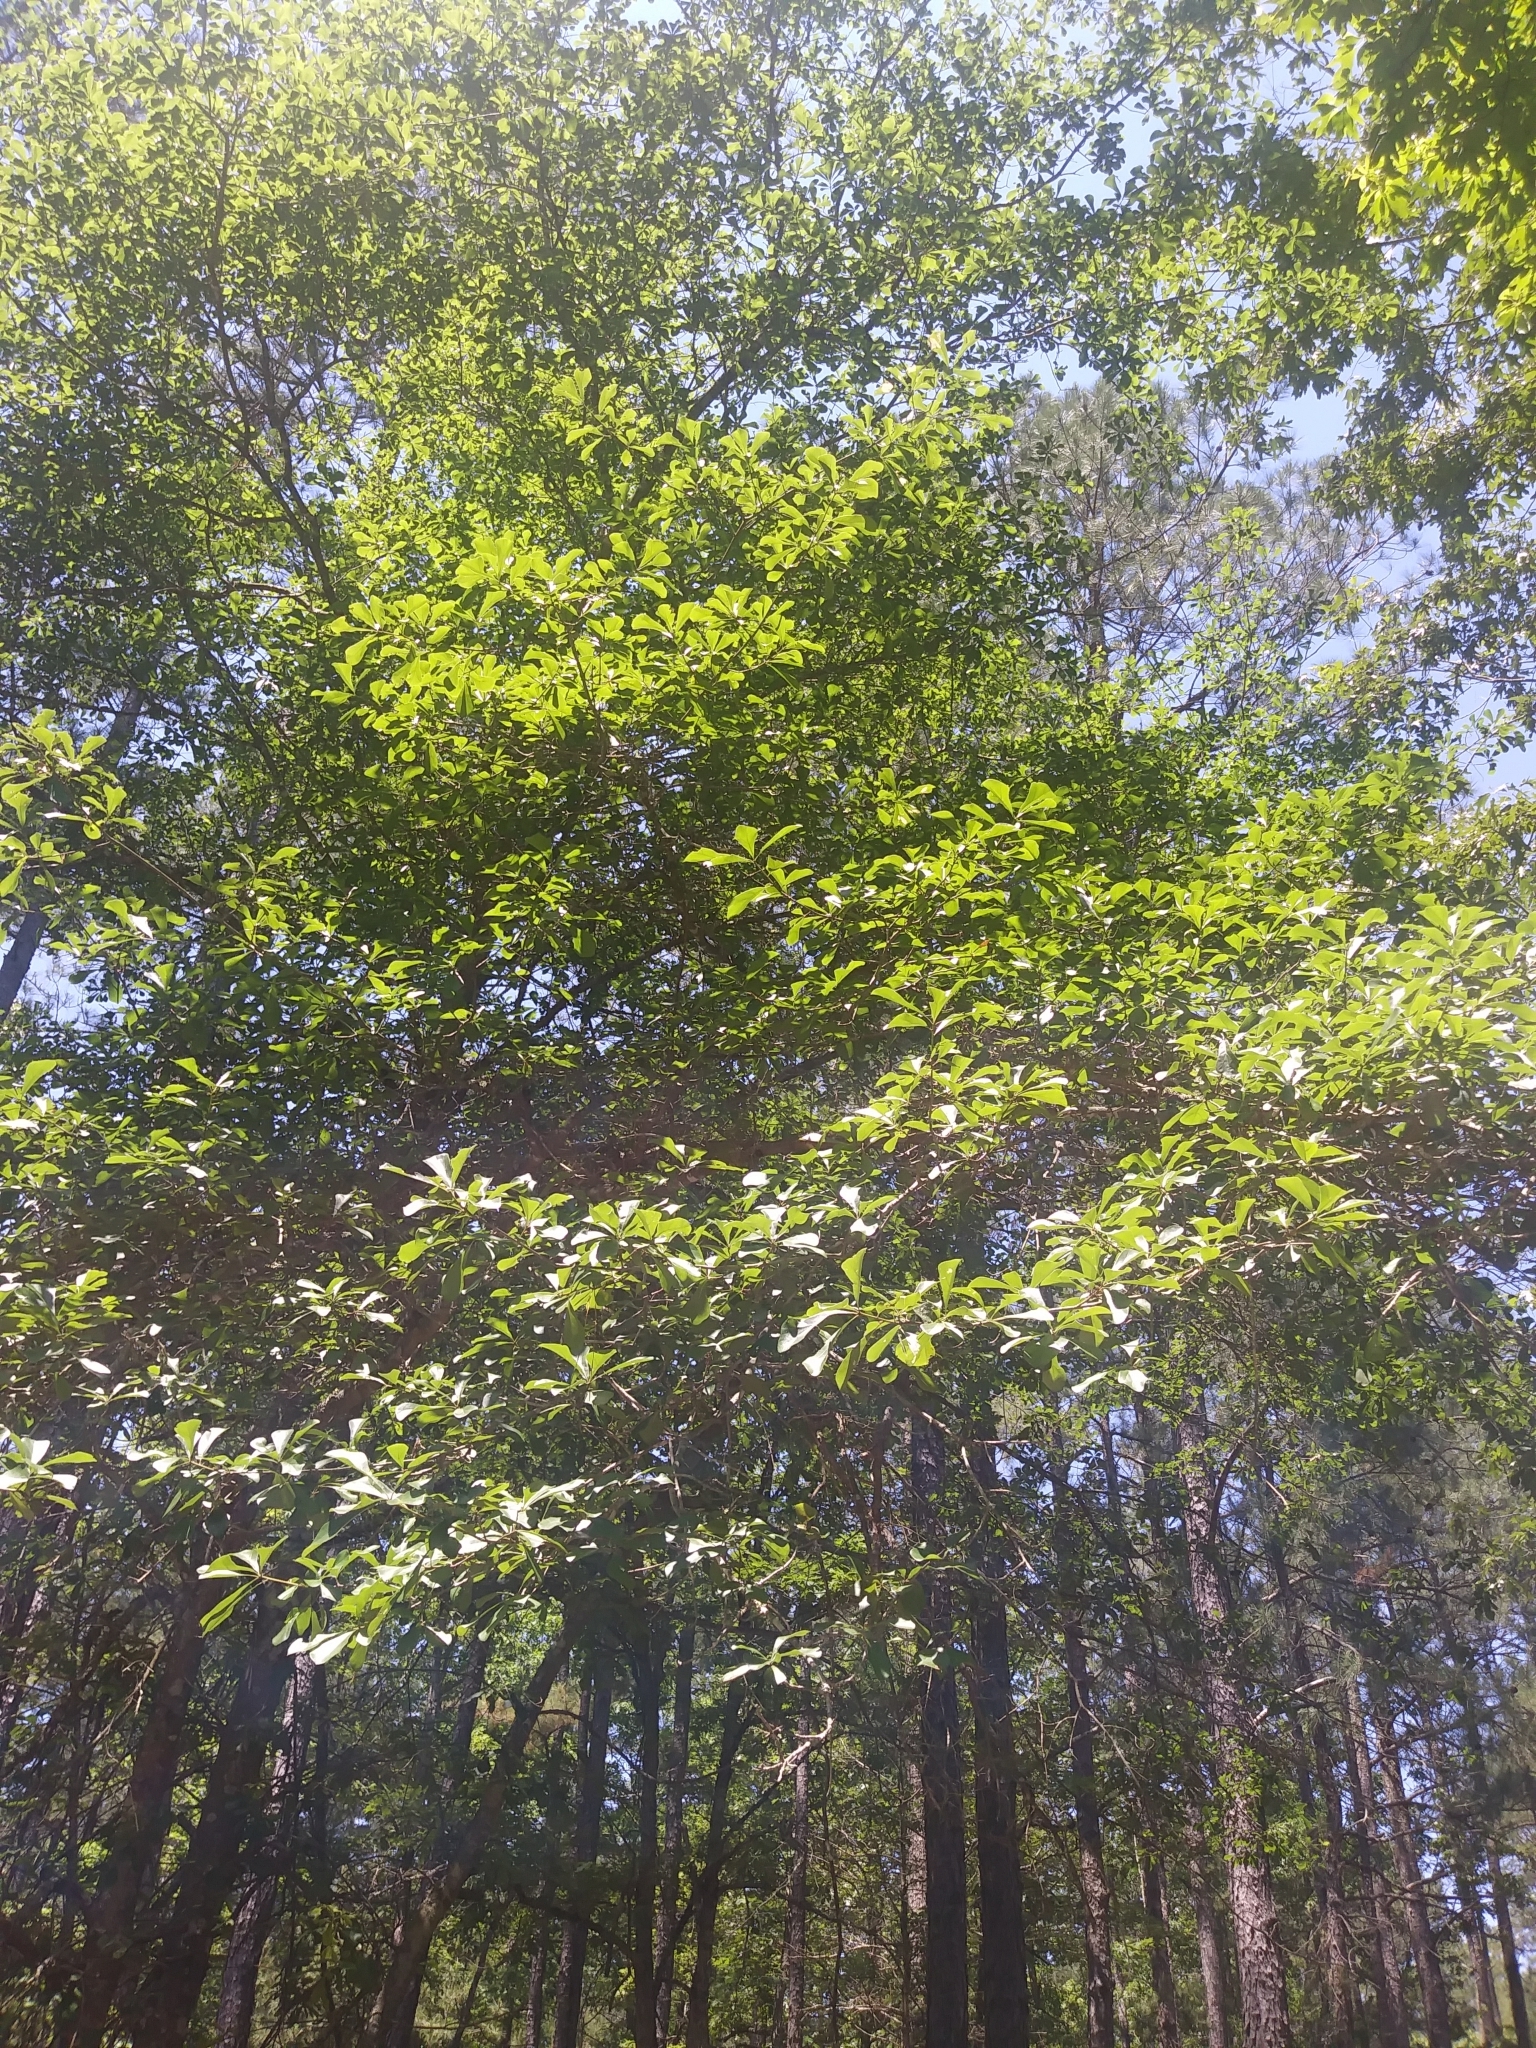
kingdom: Plantae
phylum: Tracheophyta
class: Magnoliopsida
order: Fagales
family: Fagaceae
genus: Quercus
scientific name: Quercus nigra
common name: Water oak
